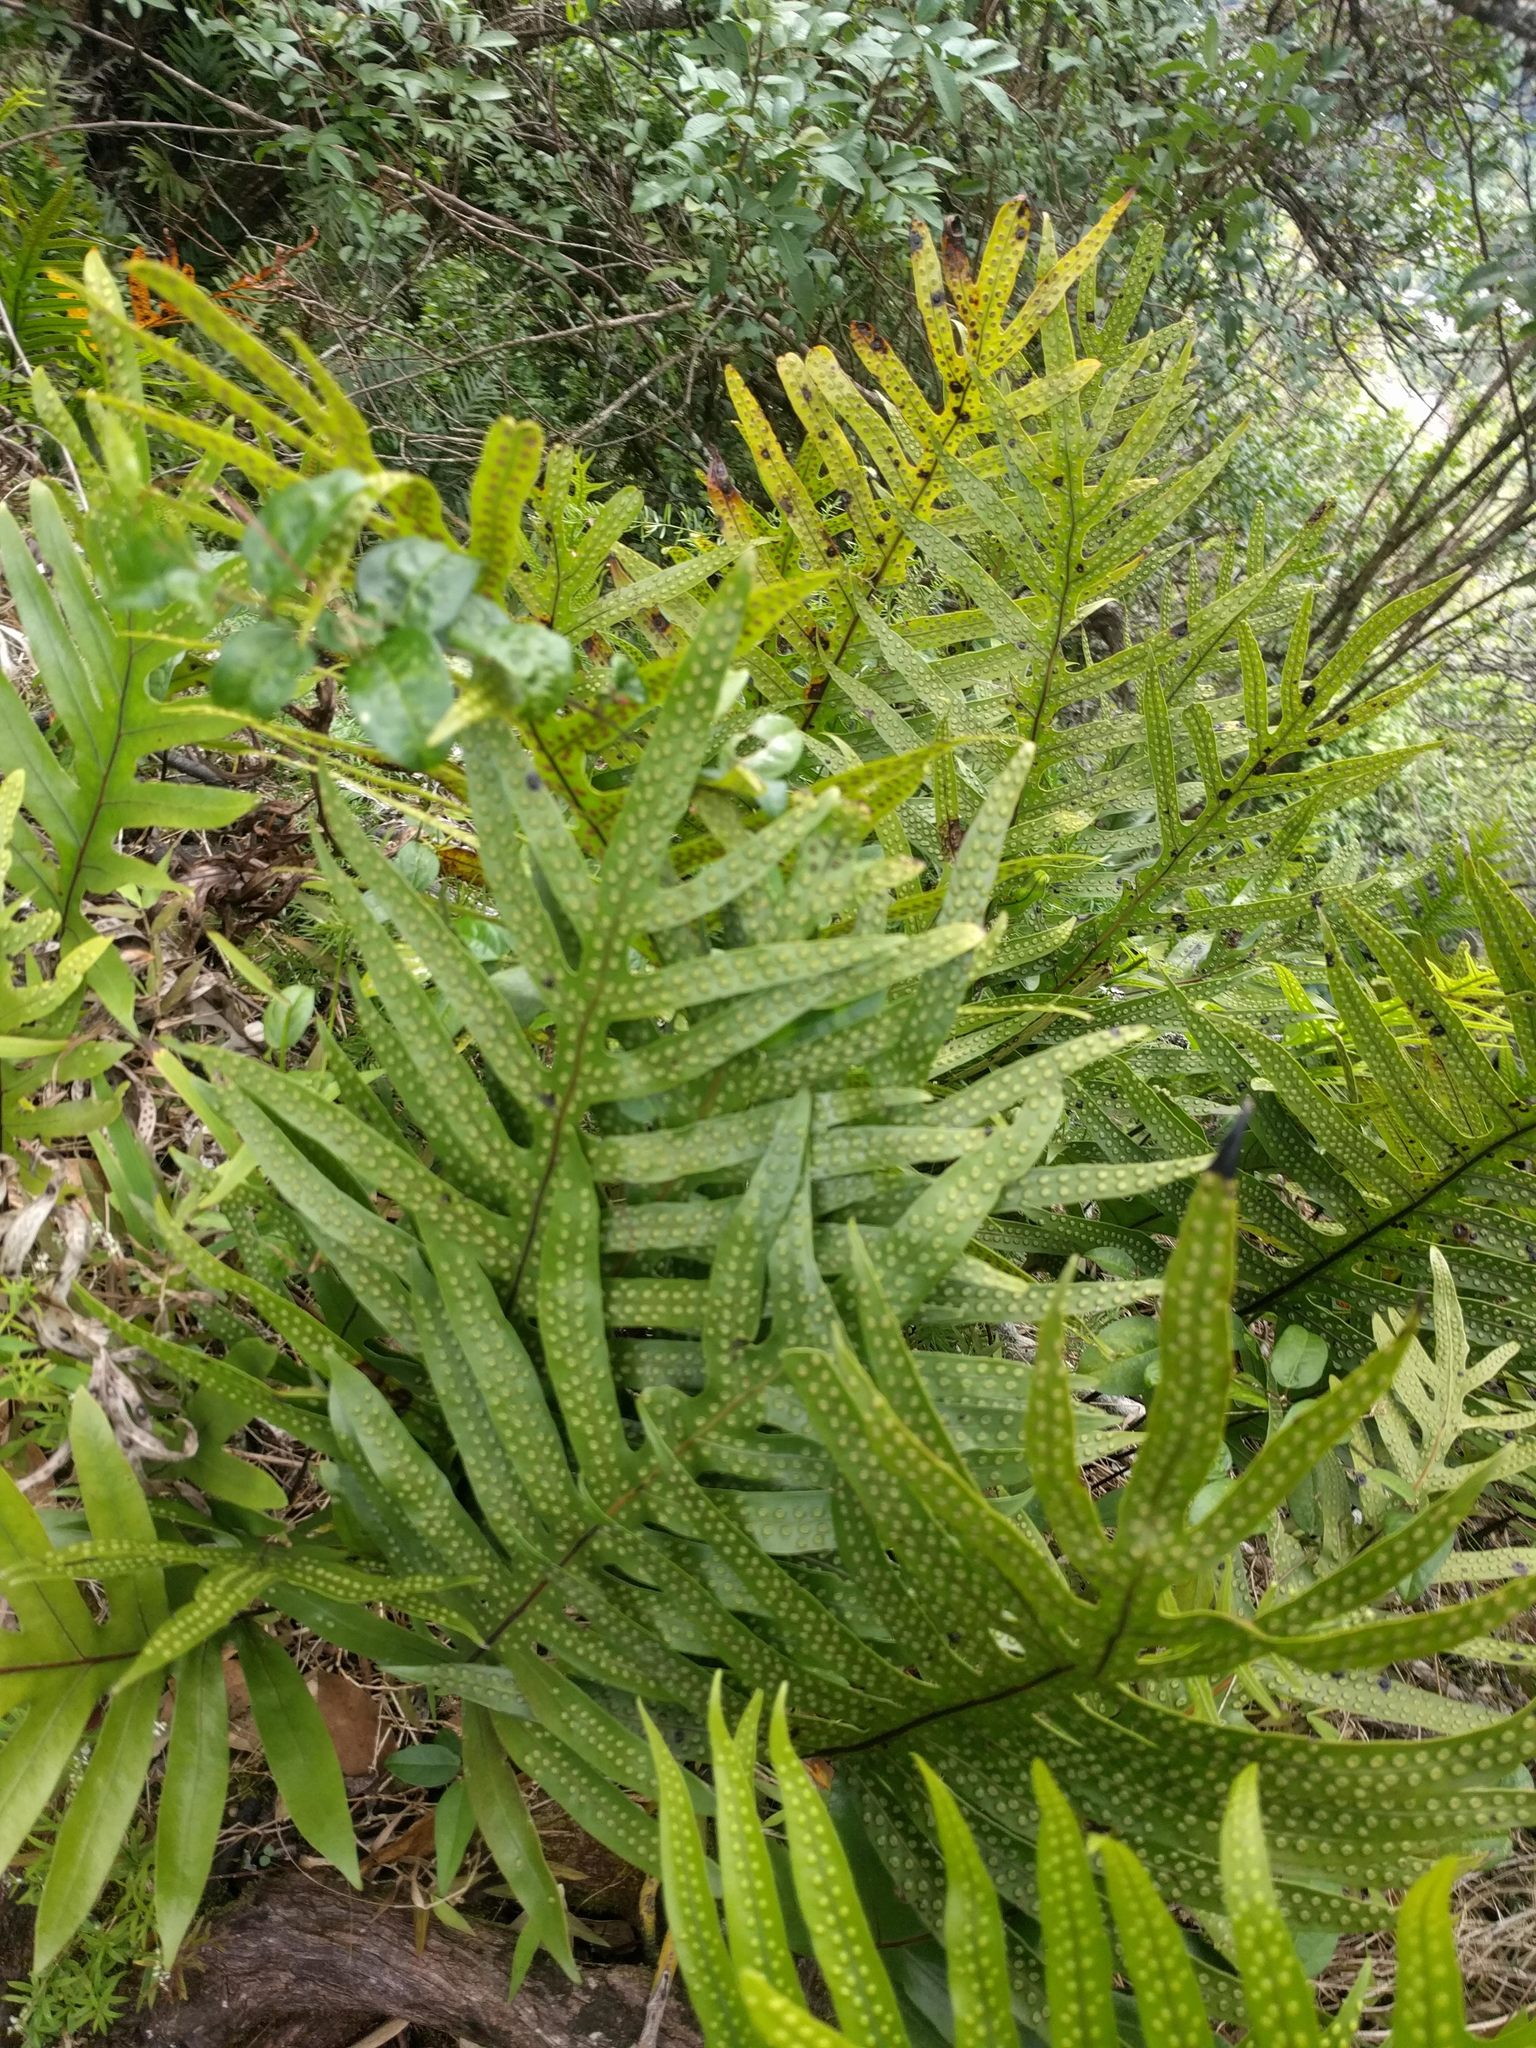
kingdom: Plantae
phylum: Tracheophyta
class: Polypodiopsida
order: Polypodiales
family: Polypodiaceae
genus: Microsorum
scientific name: Microsorum grossum
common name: Musk fern
